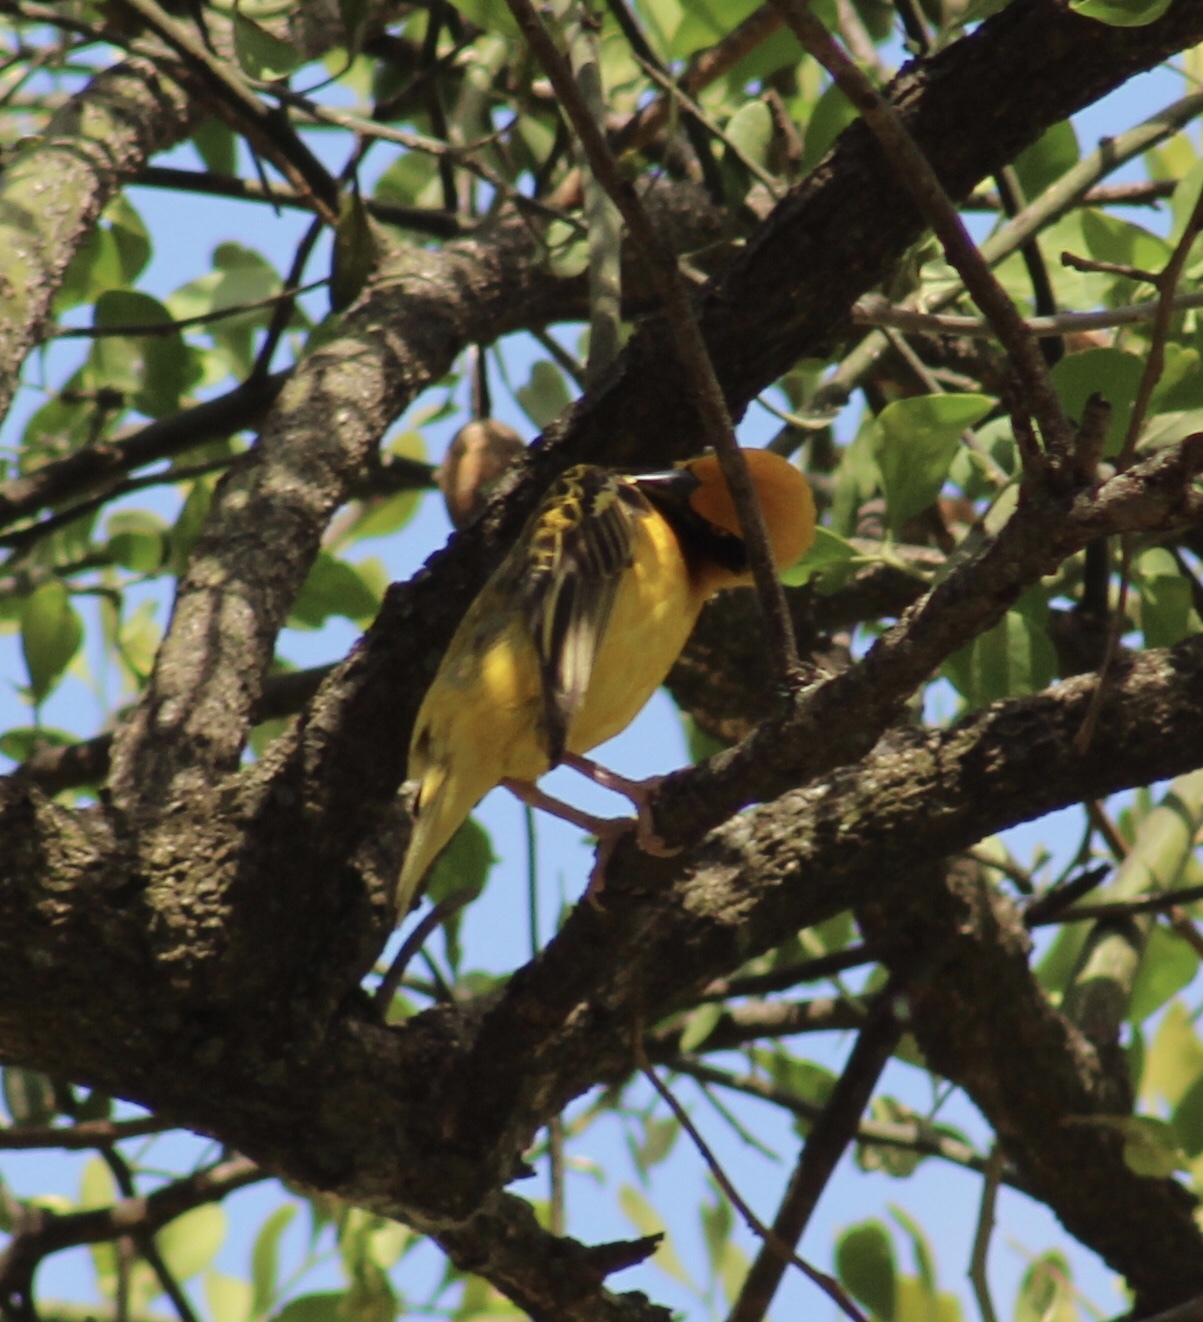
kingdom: Animalia
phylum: Chordata
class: Aves
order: Passeriformes
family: Ploceidae
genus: Ploceus
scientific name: Ploceus spekei
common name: Speke's weaver
